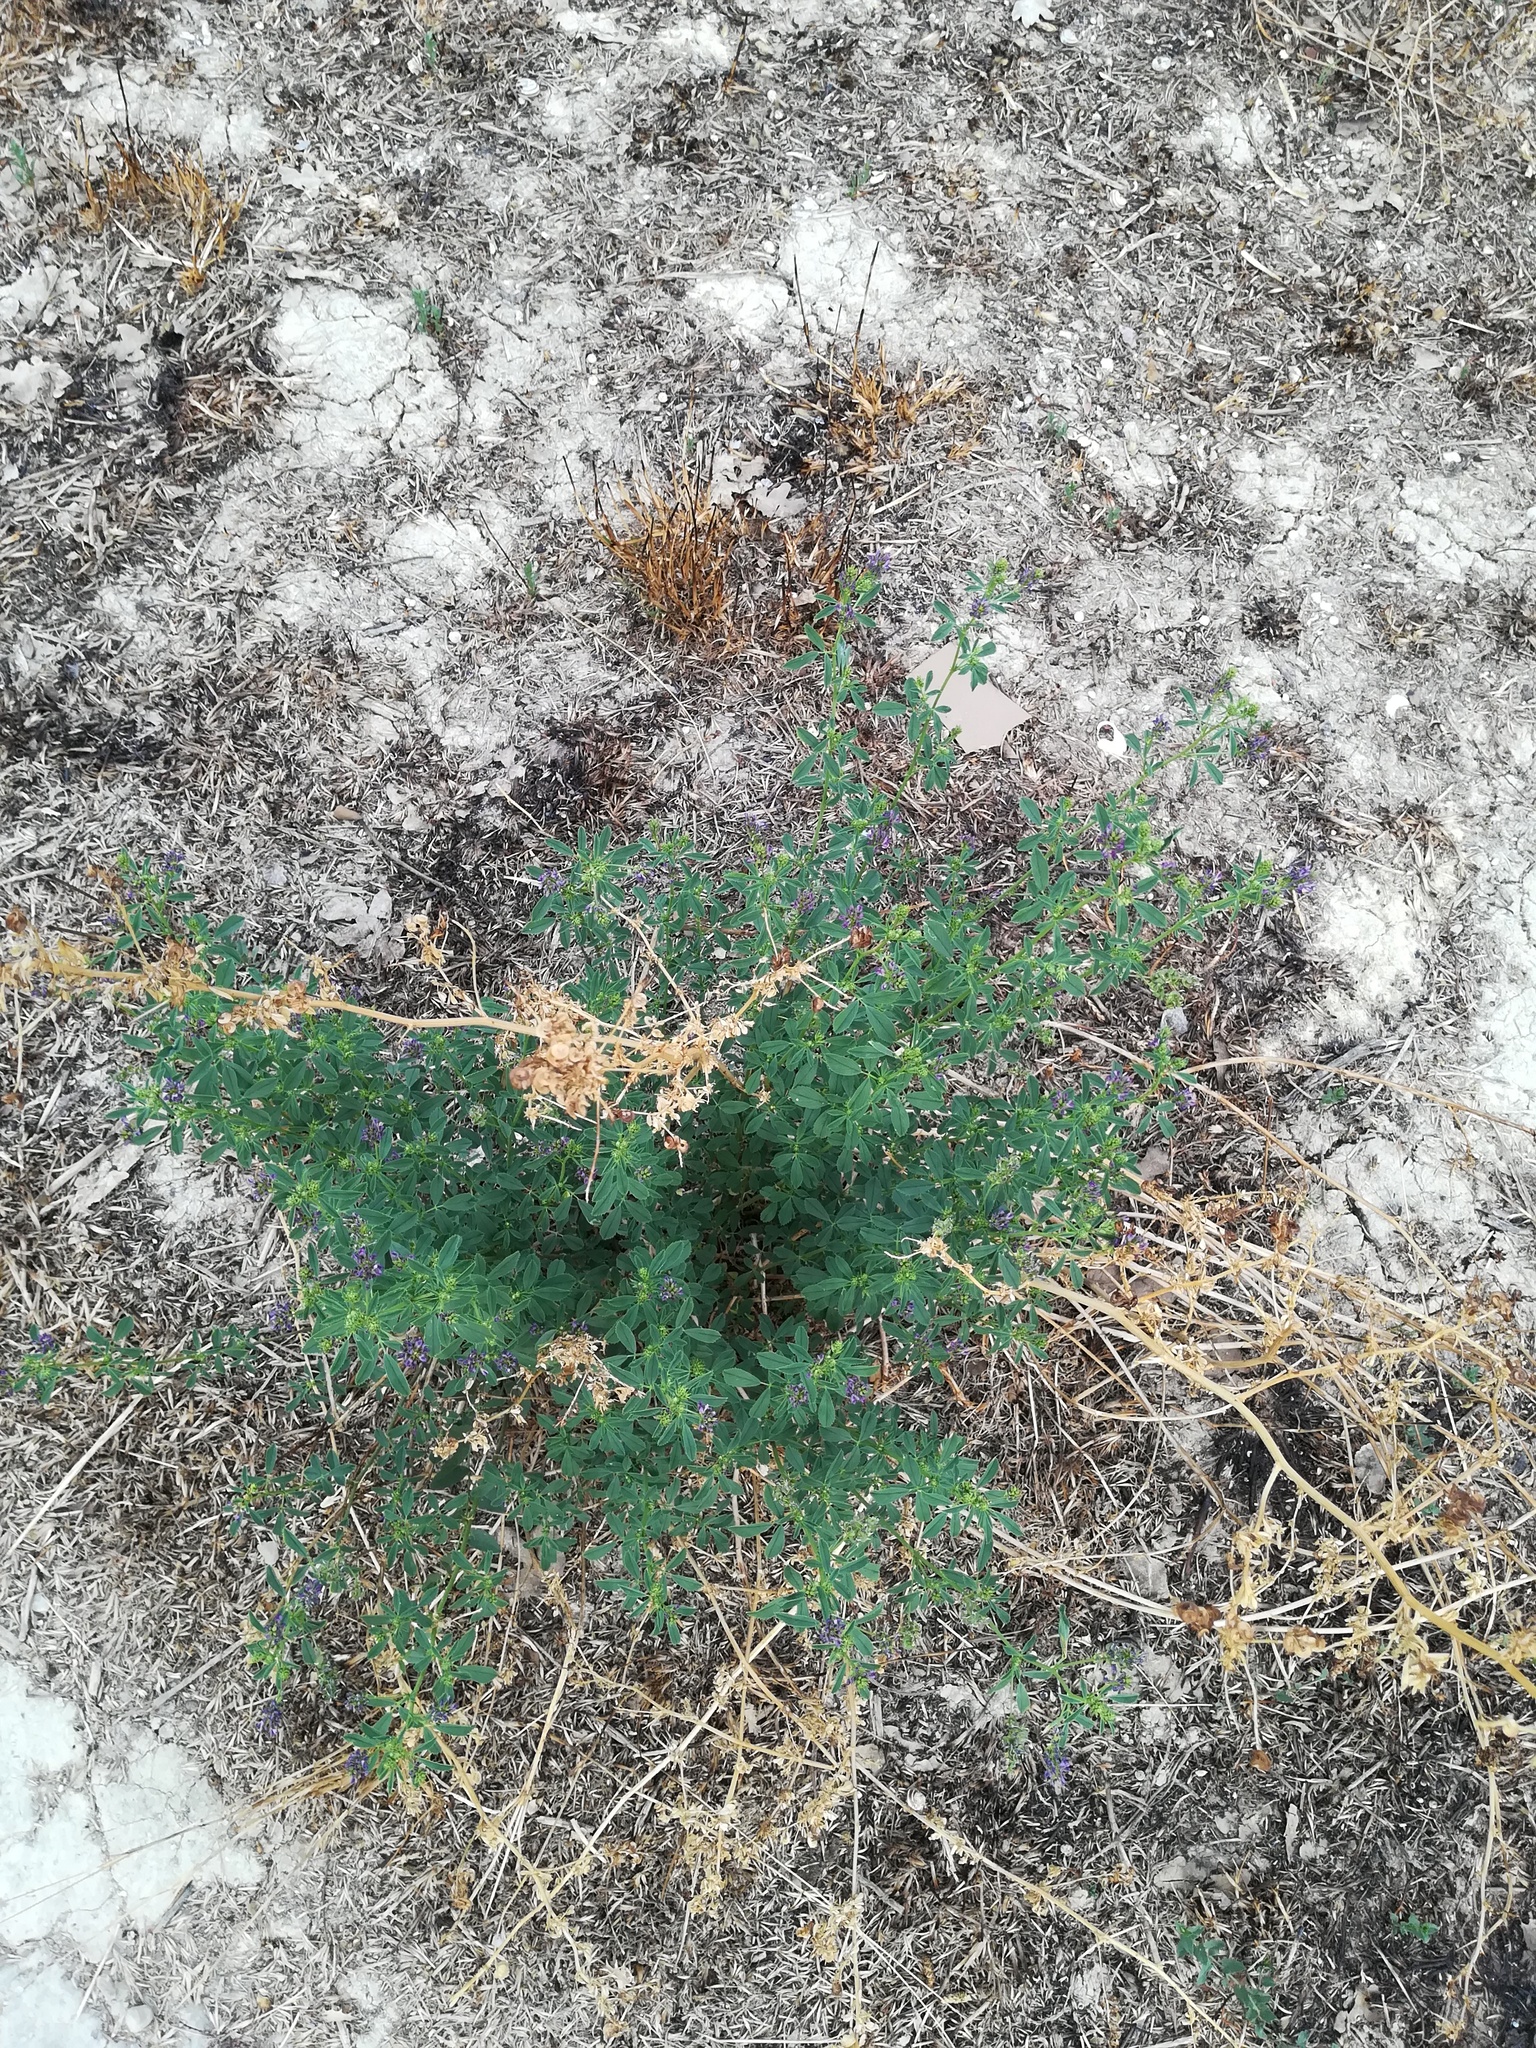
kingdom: Plantae
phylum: Tracheophyta
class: Magnoliopsida
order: Fabales
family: Fabaceae
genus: Medicago
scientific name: Medicago sativa
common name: Alfalfa
